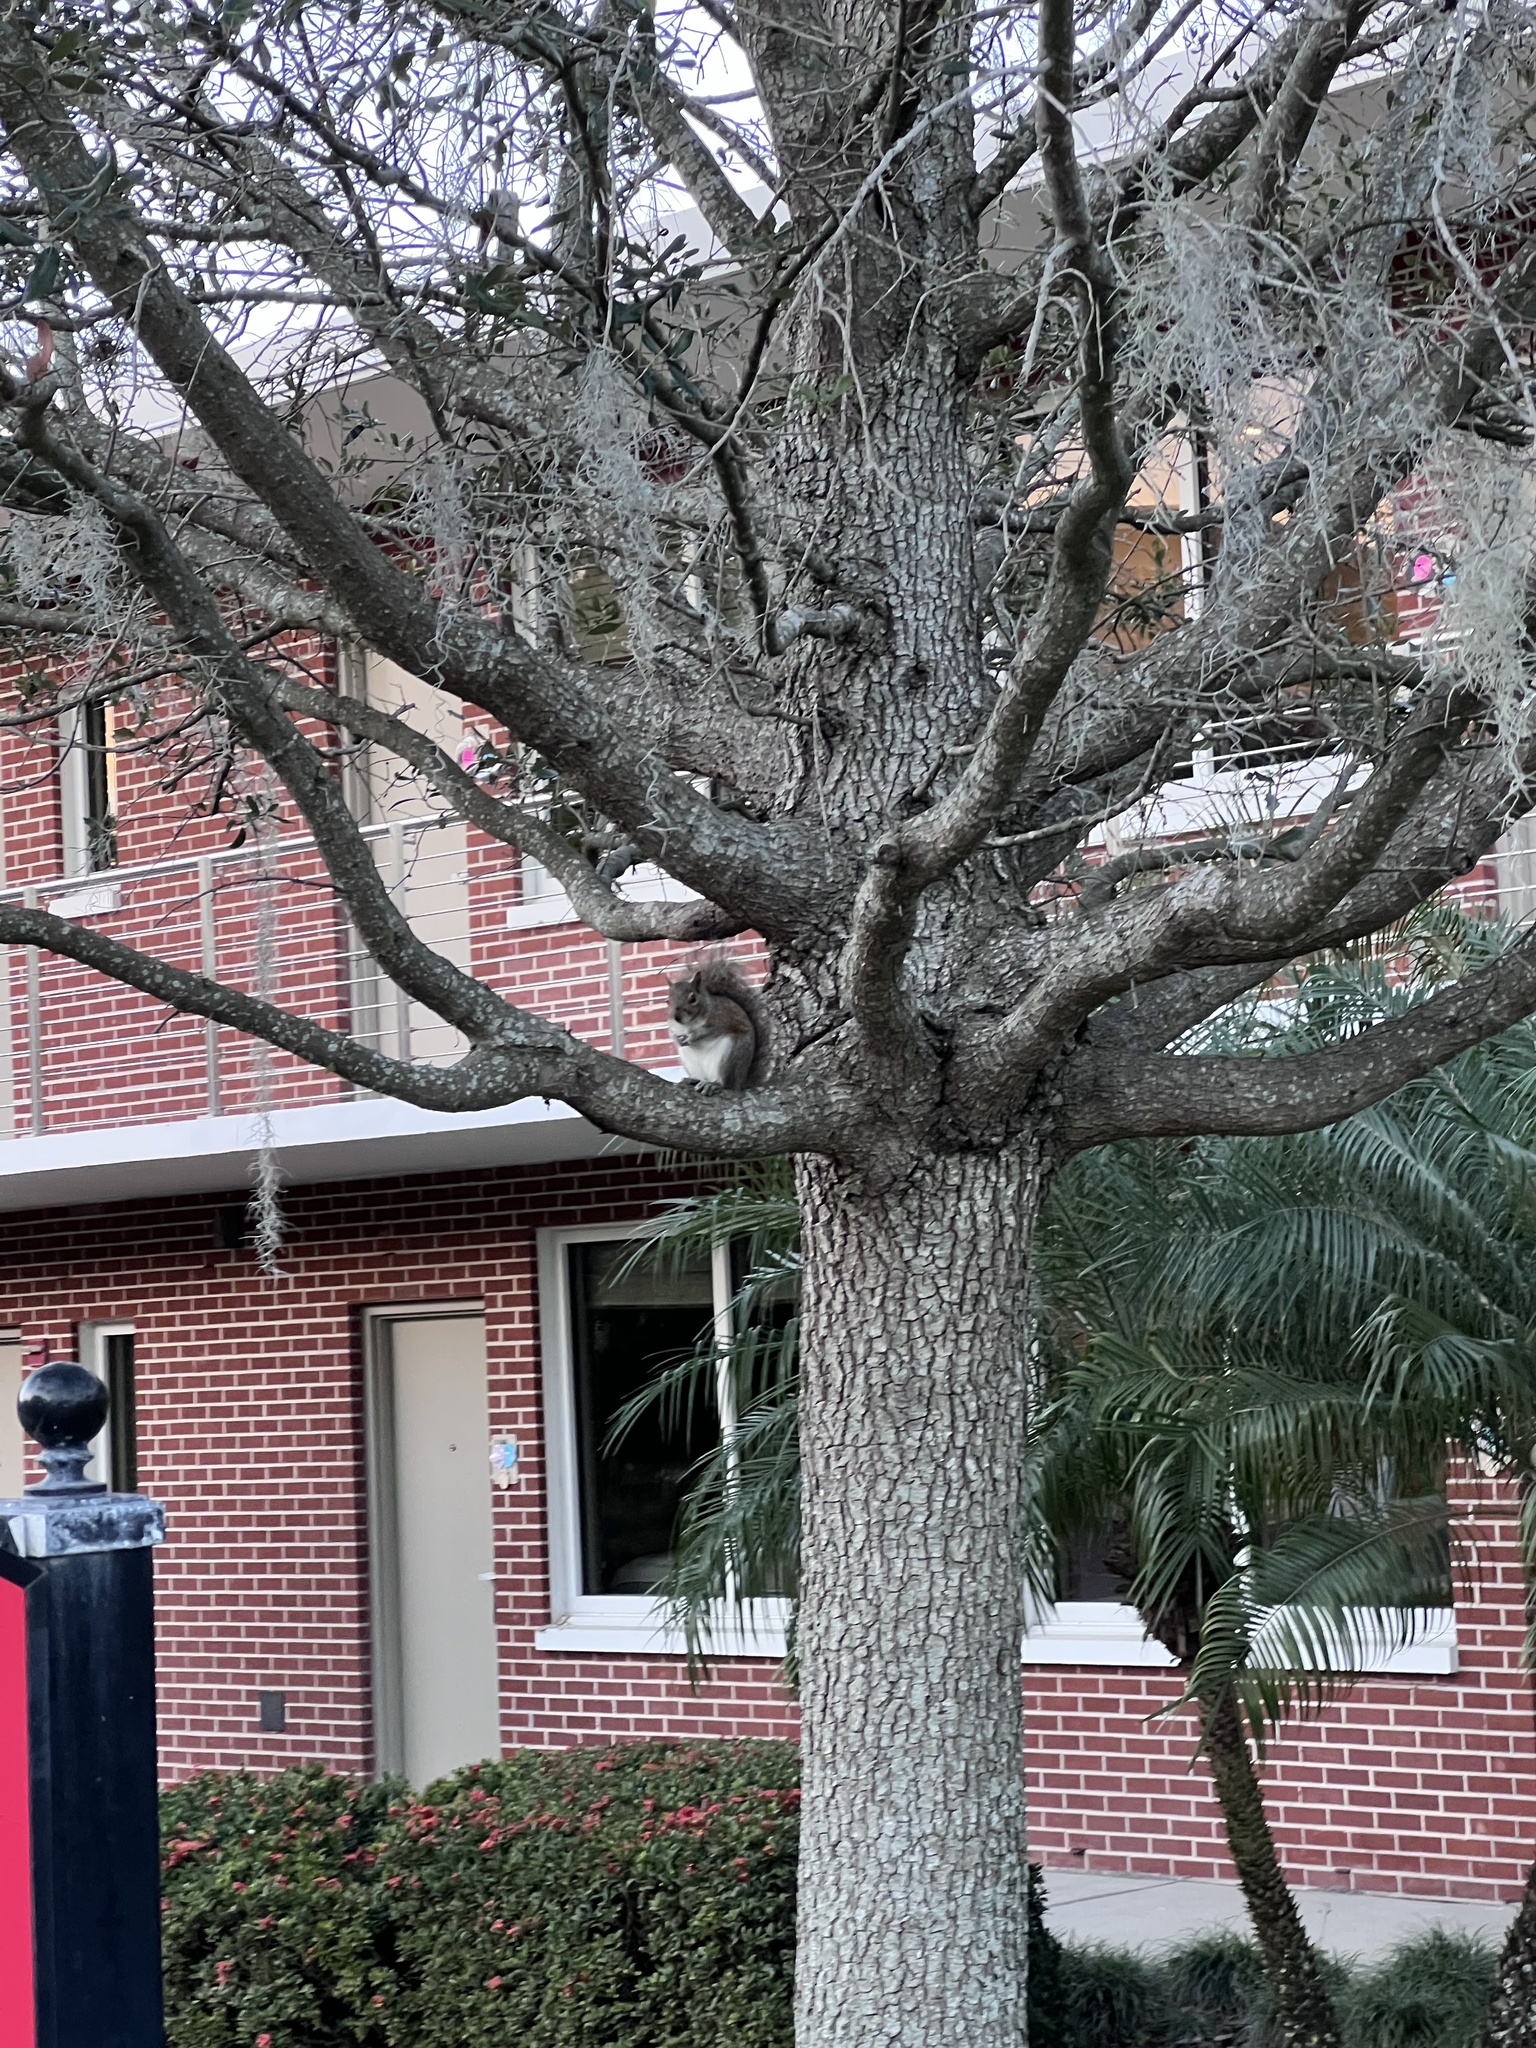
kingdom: Animalia
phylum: Chordata
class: Mammalia
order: Rodentia
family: Sciuridae
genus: Sciurus
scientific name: Sciurus carolinensis
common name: Eastern gray squirrel
